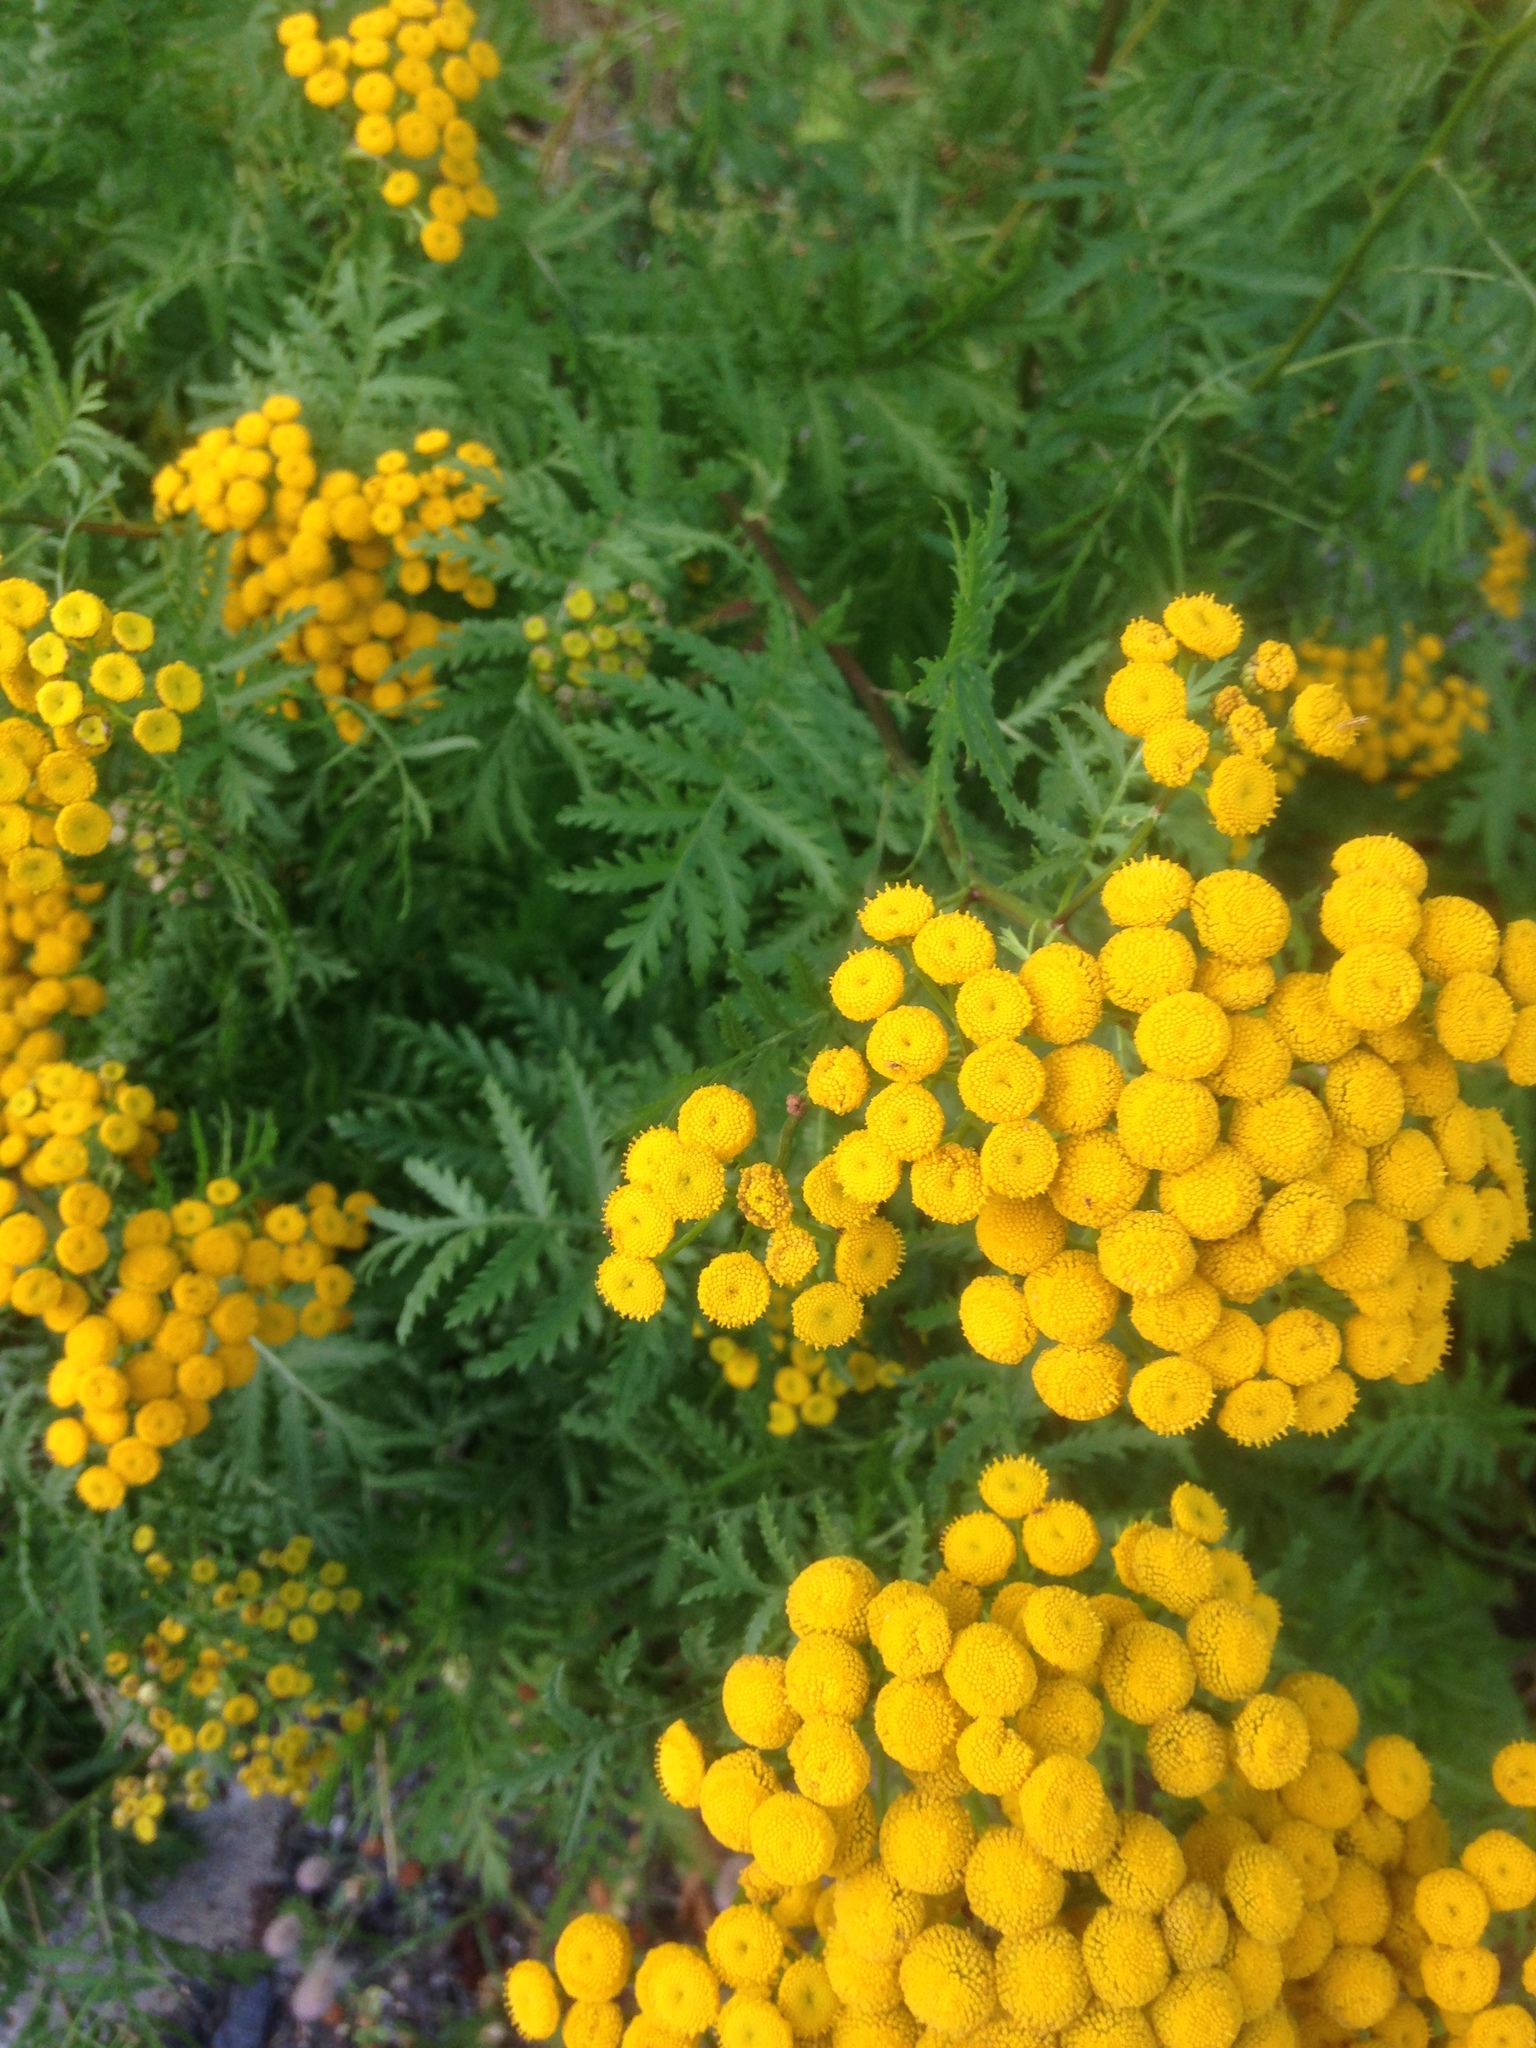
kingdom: Plantae
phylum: Tracheophyta
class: Magnoliopsida
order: Asterales
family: Asteraceae
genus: Tanacetum
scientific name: Tanacetum vulgare
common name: Common tansy
